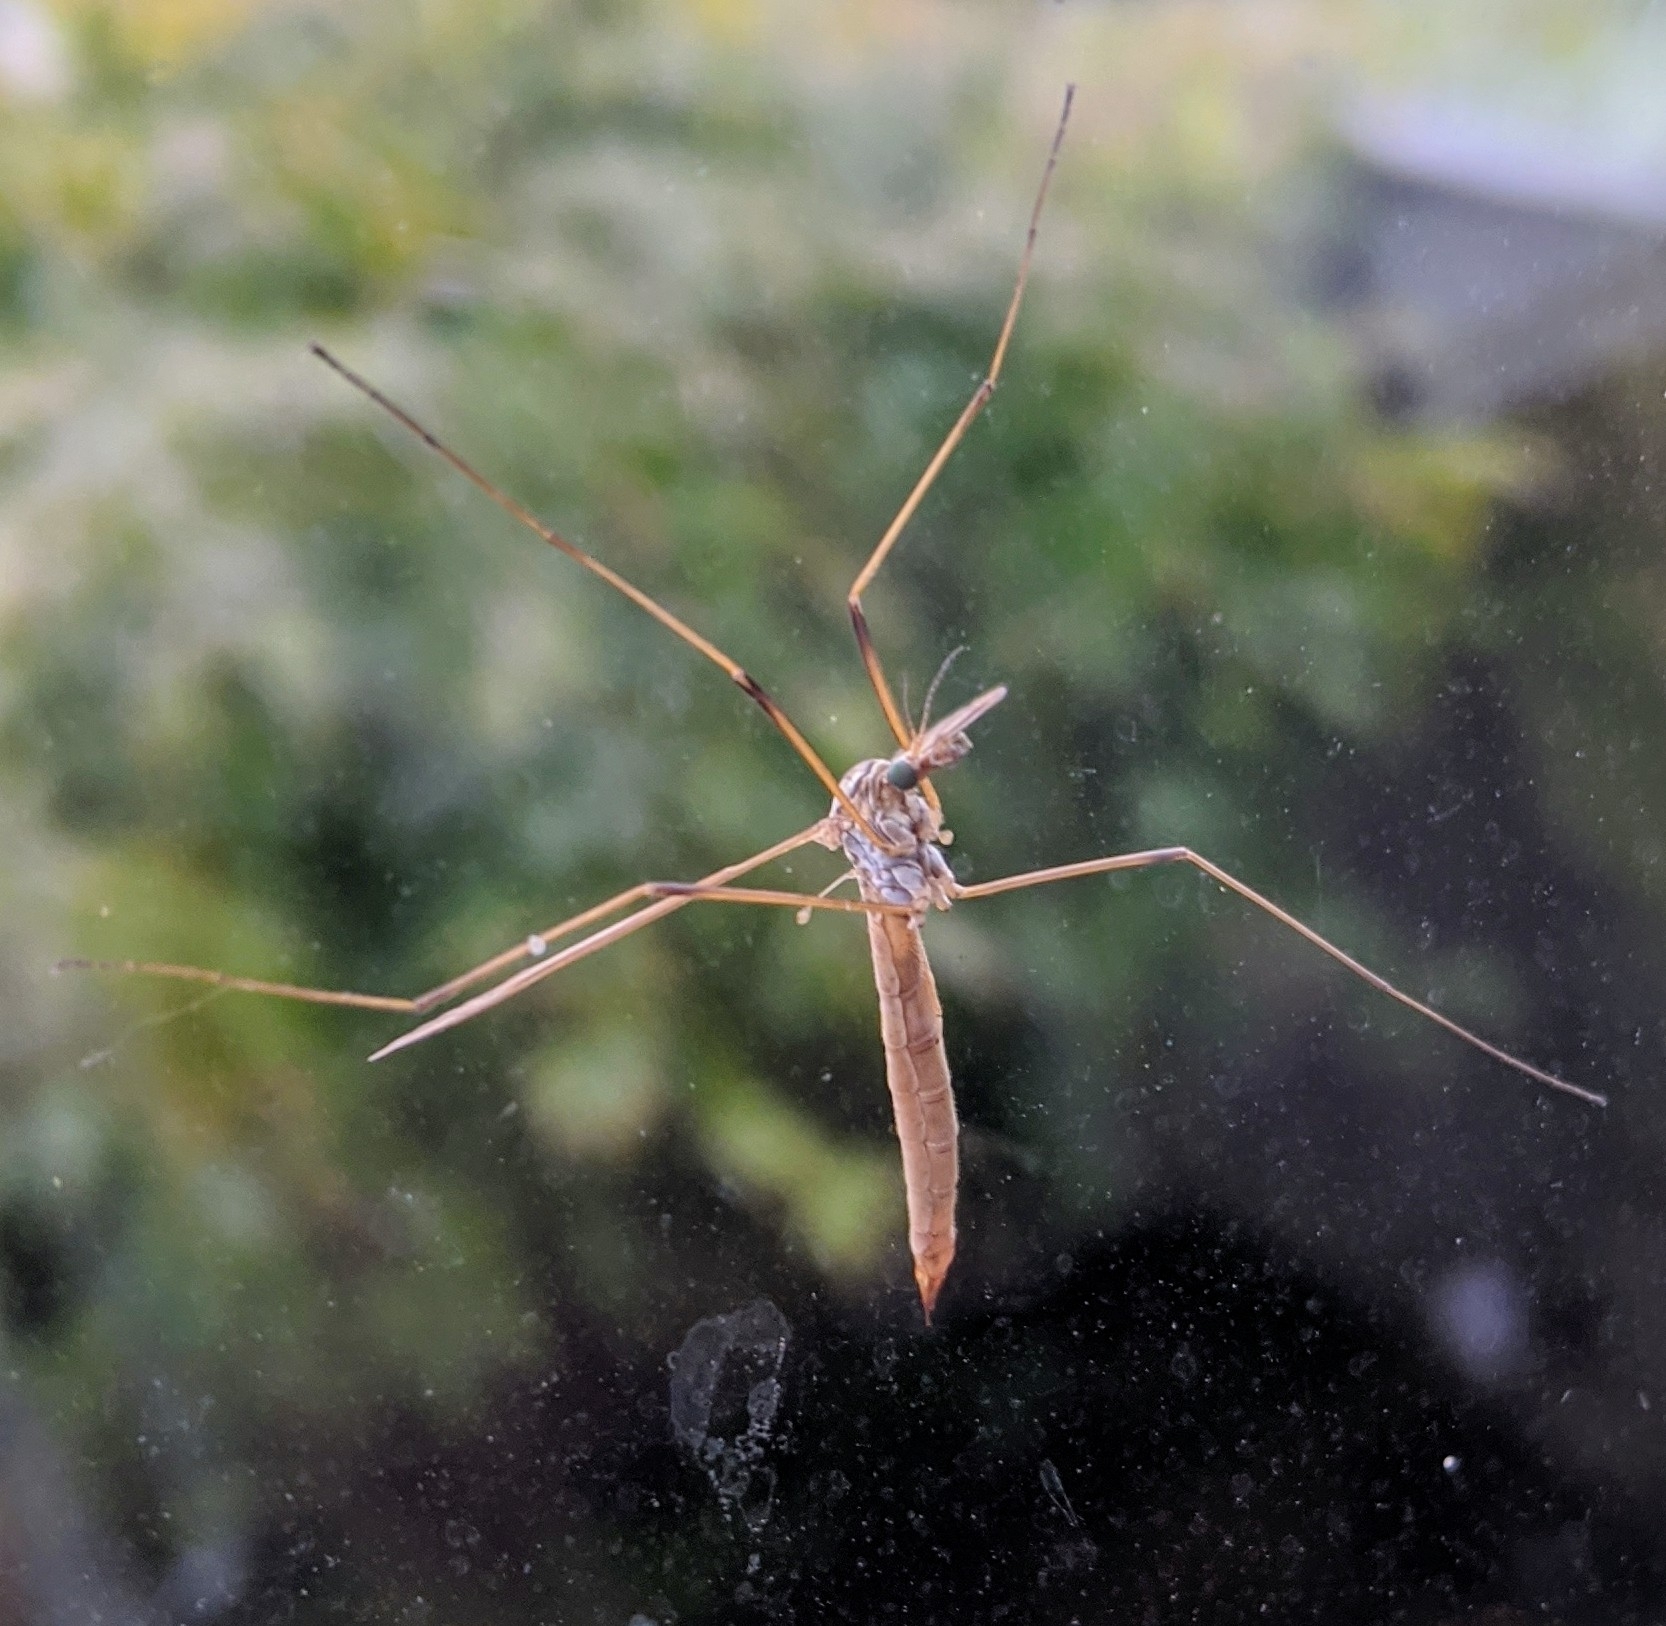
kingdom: Animalia
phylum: Arthropoda
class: Insecta
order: Diptera
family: Tipulidae
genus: Tipula
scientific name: Tipula paludosa
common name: European cranefly
